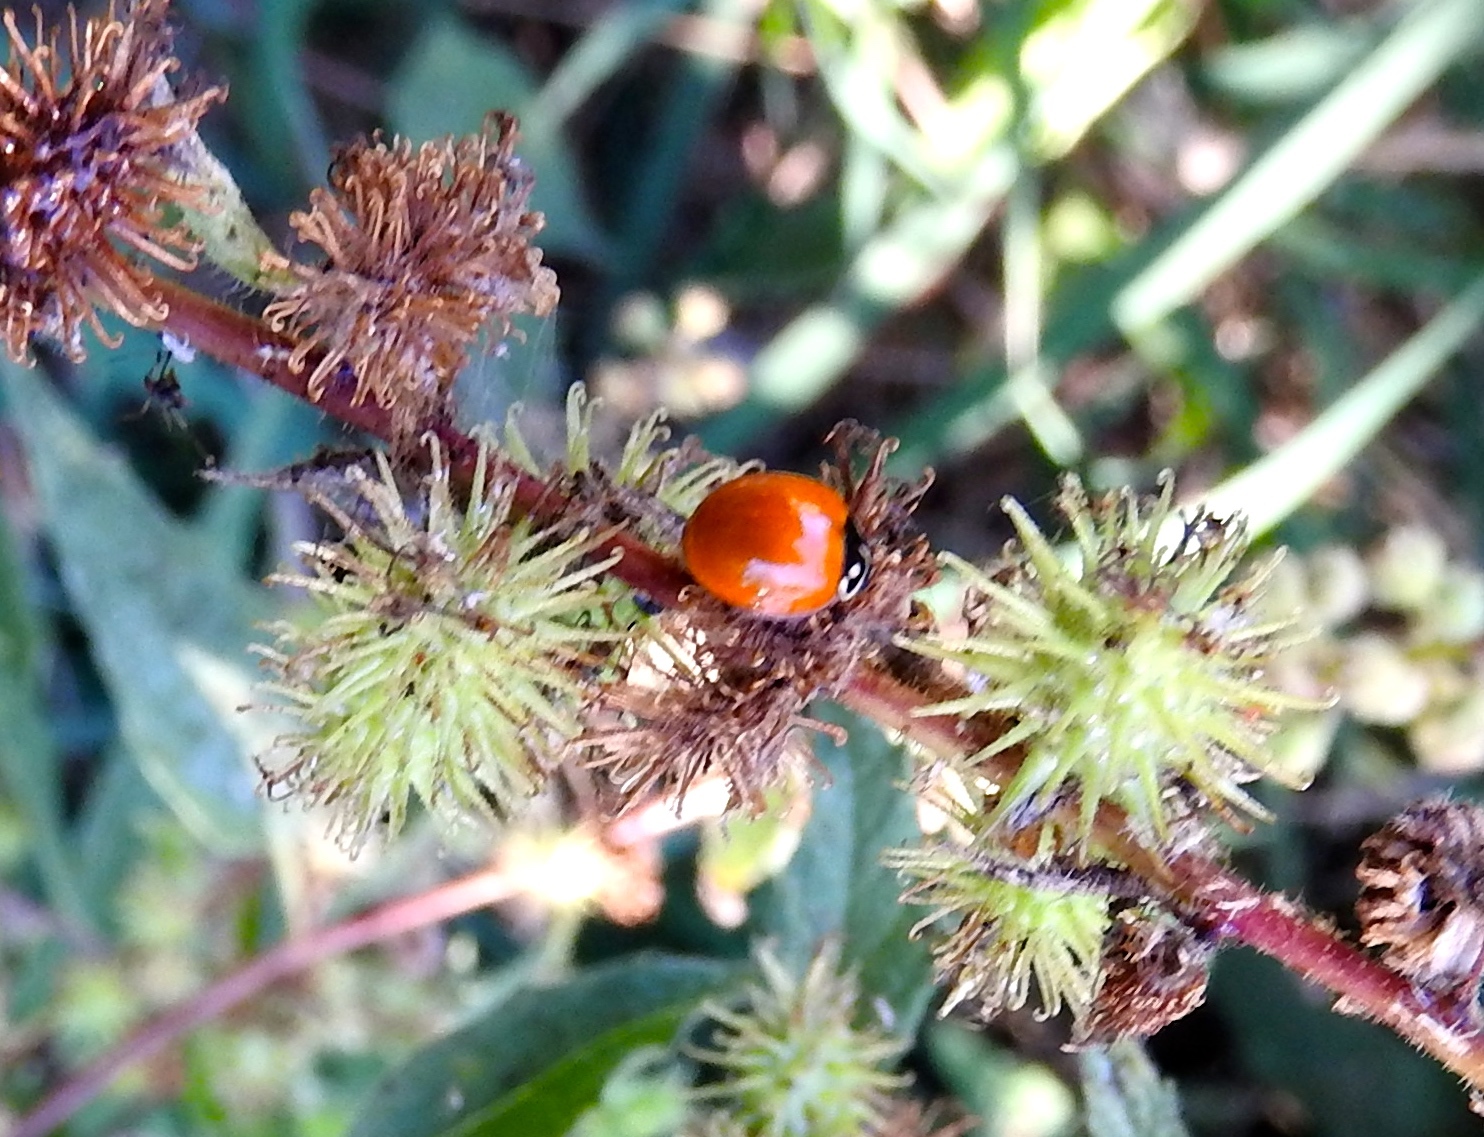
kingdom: Animalia
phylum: Arthropoda
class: Insecta
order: Coleoptera
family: Coccinellidae
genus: Cycloneda
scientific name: Cycloneda sanguinea
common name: Ladybird beetle
